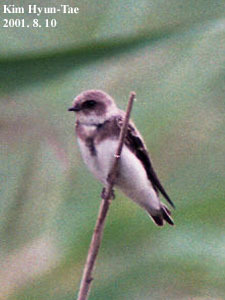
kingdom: Animalia
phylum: Chordata
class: Aves
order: Passeriformes
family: Hirundinidae
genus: Riparia
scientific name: Riparia riparia
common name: Sand martin
